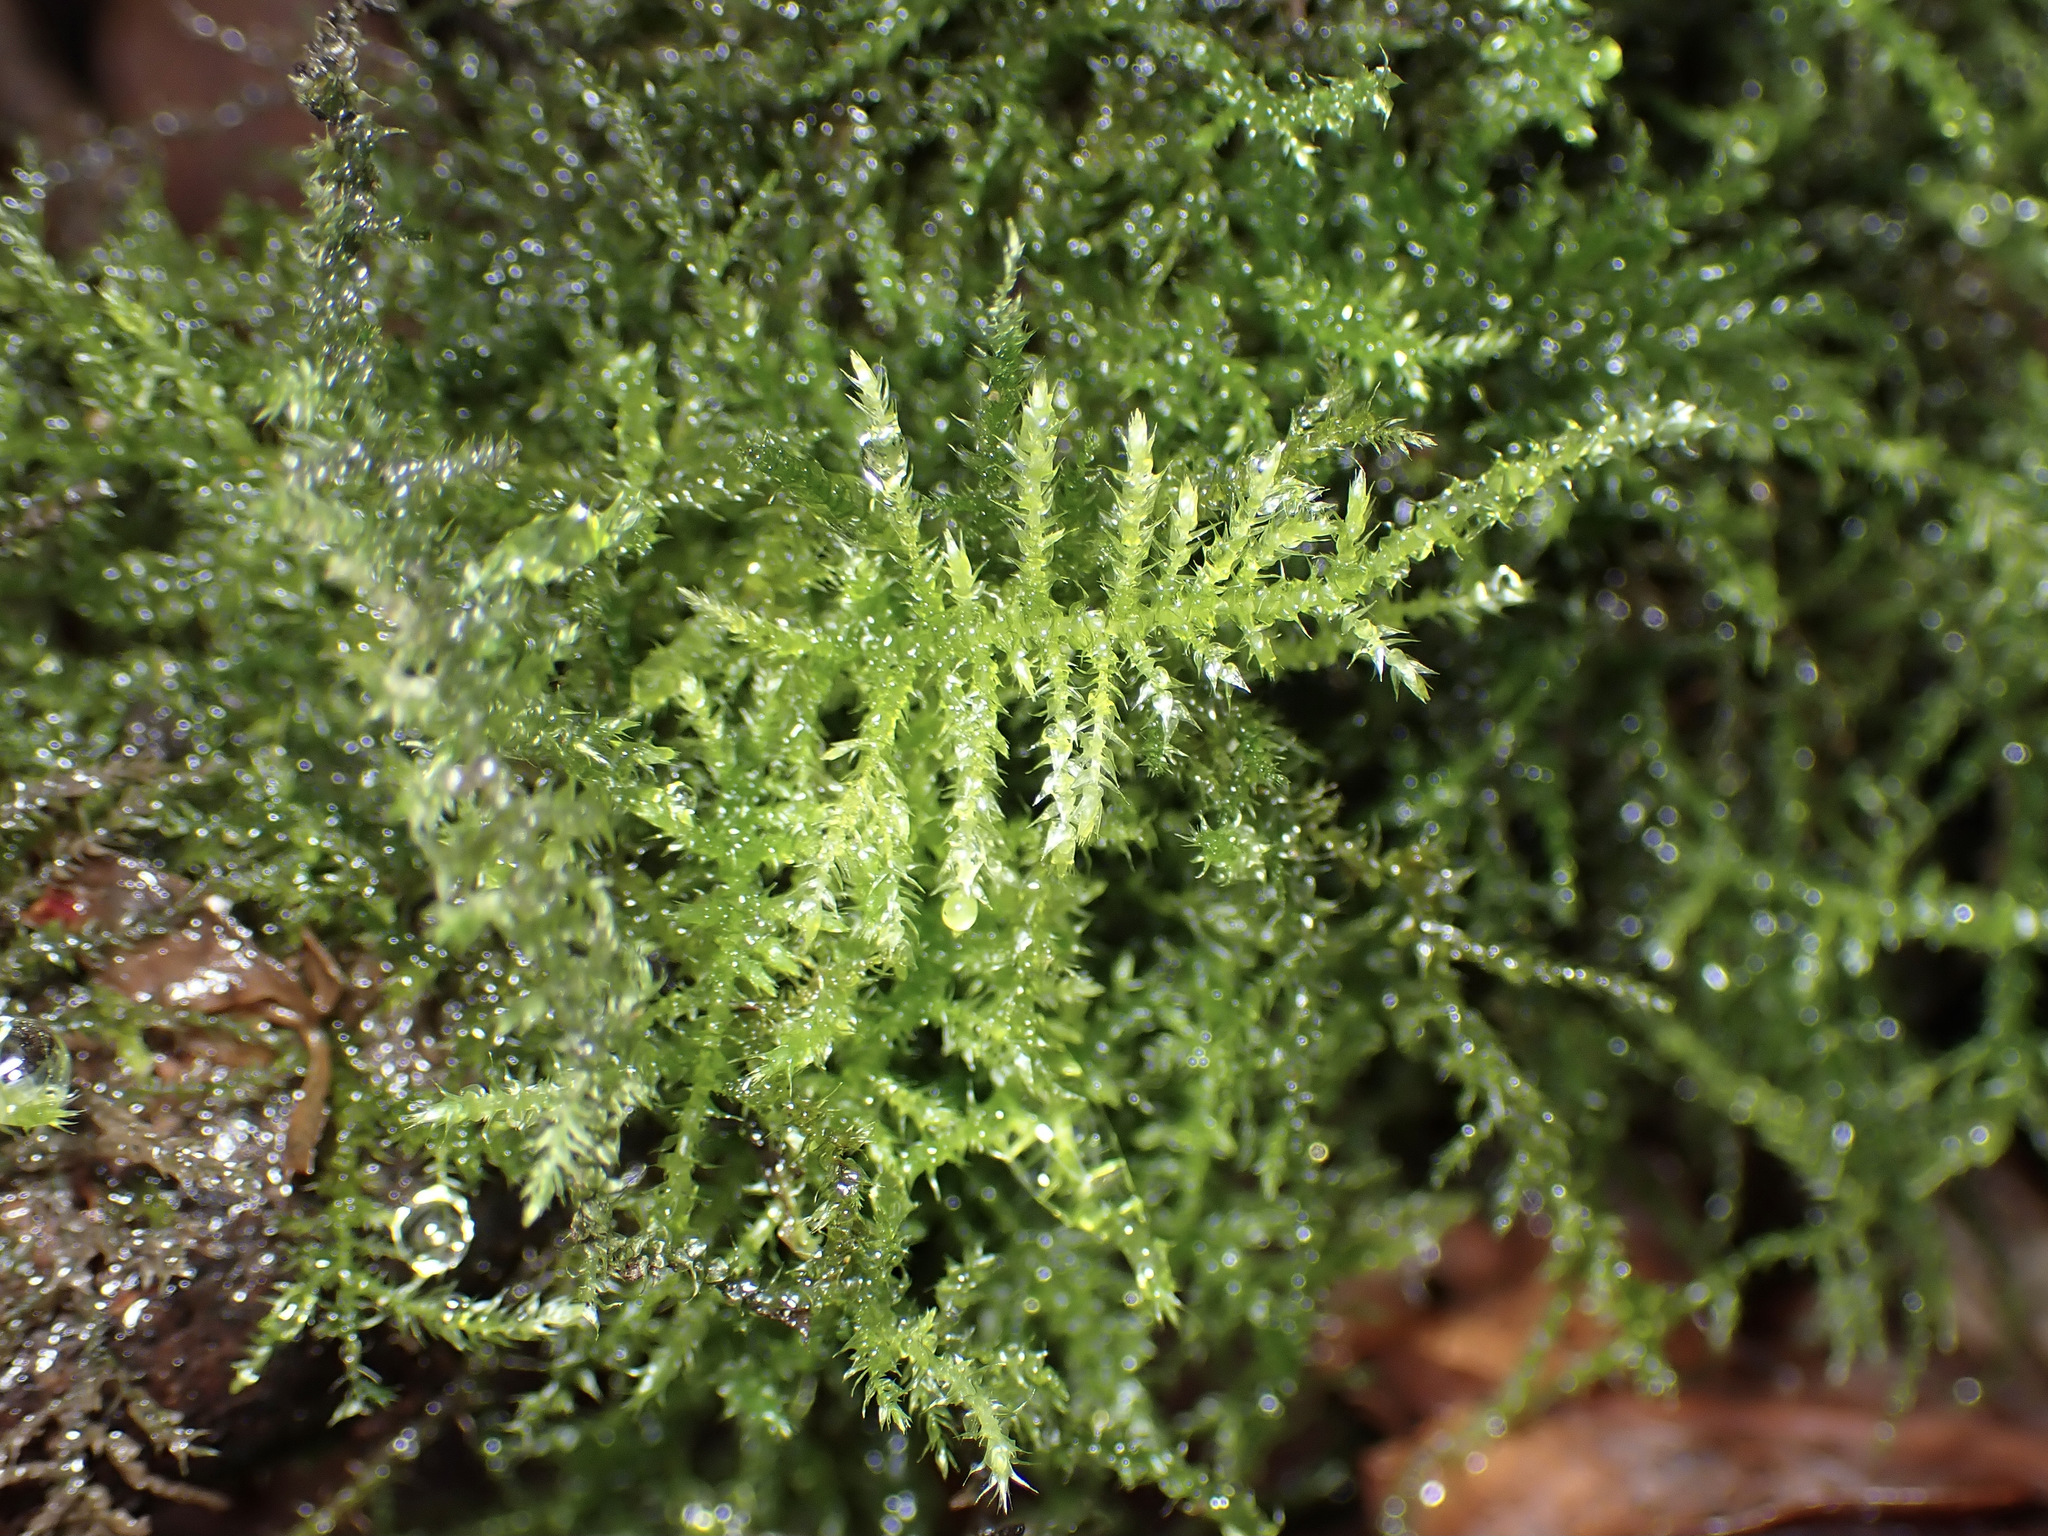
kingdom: Plantae
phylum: Bryophyta
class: Bryopsida
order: Hypnales
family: Brachytheciaceae
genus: Kindbergia
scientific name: Kindbergia praelonga
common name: Slender beaked moss
